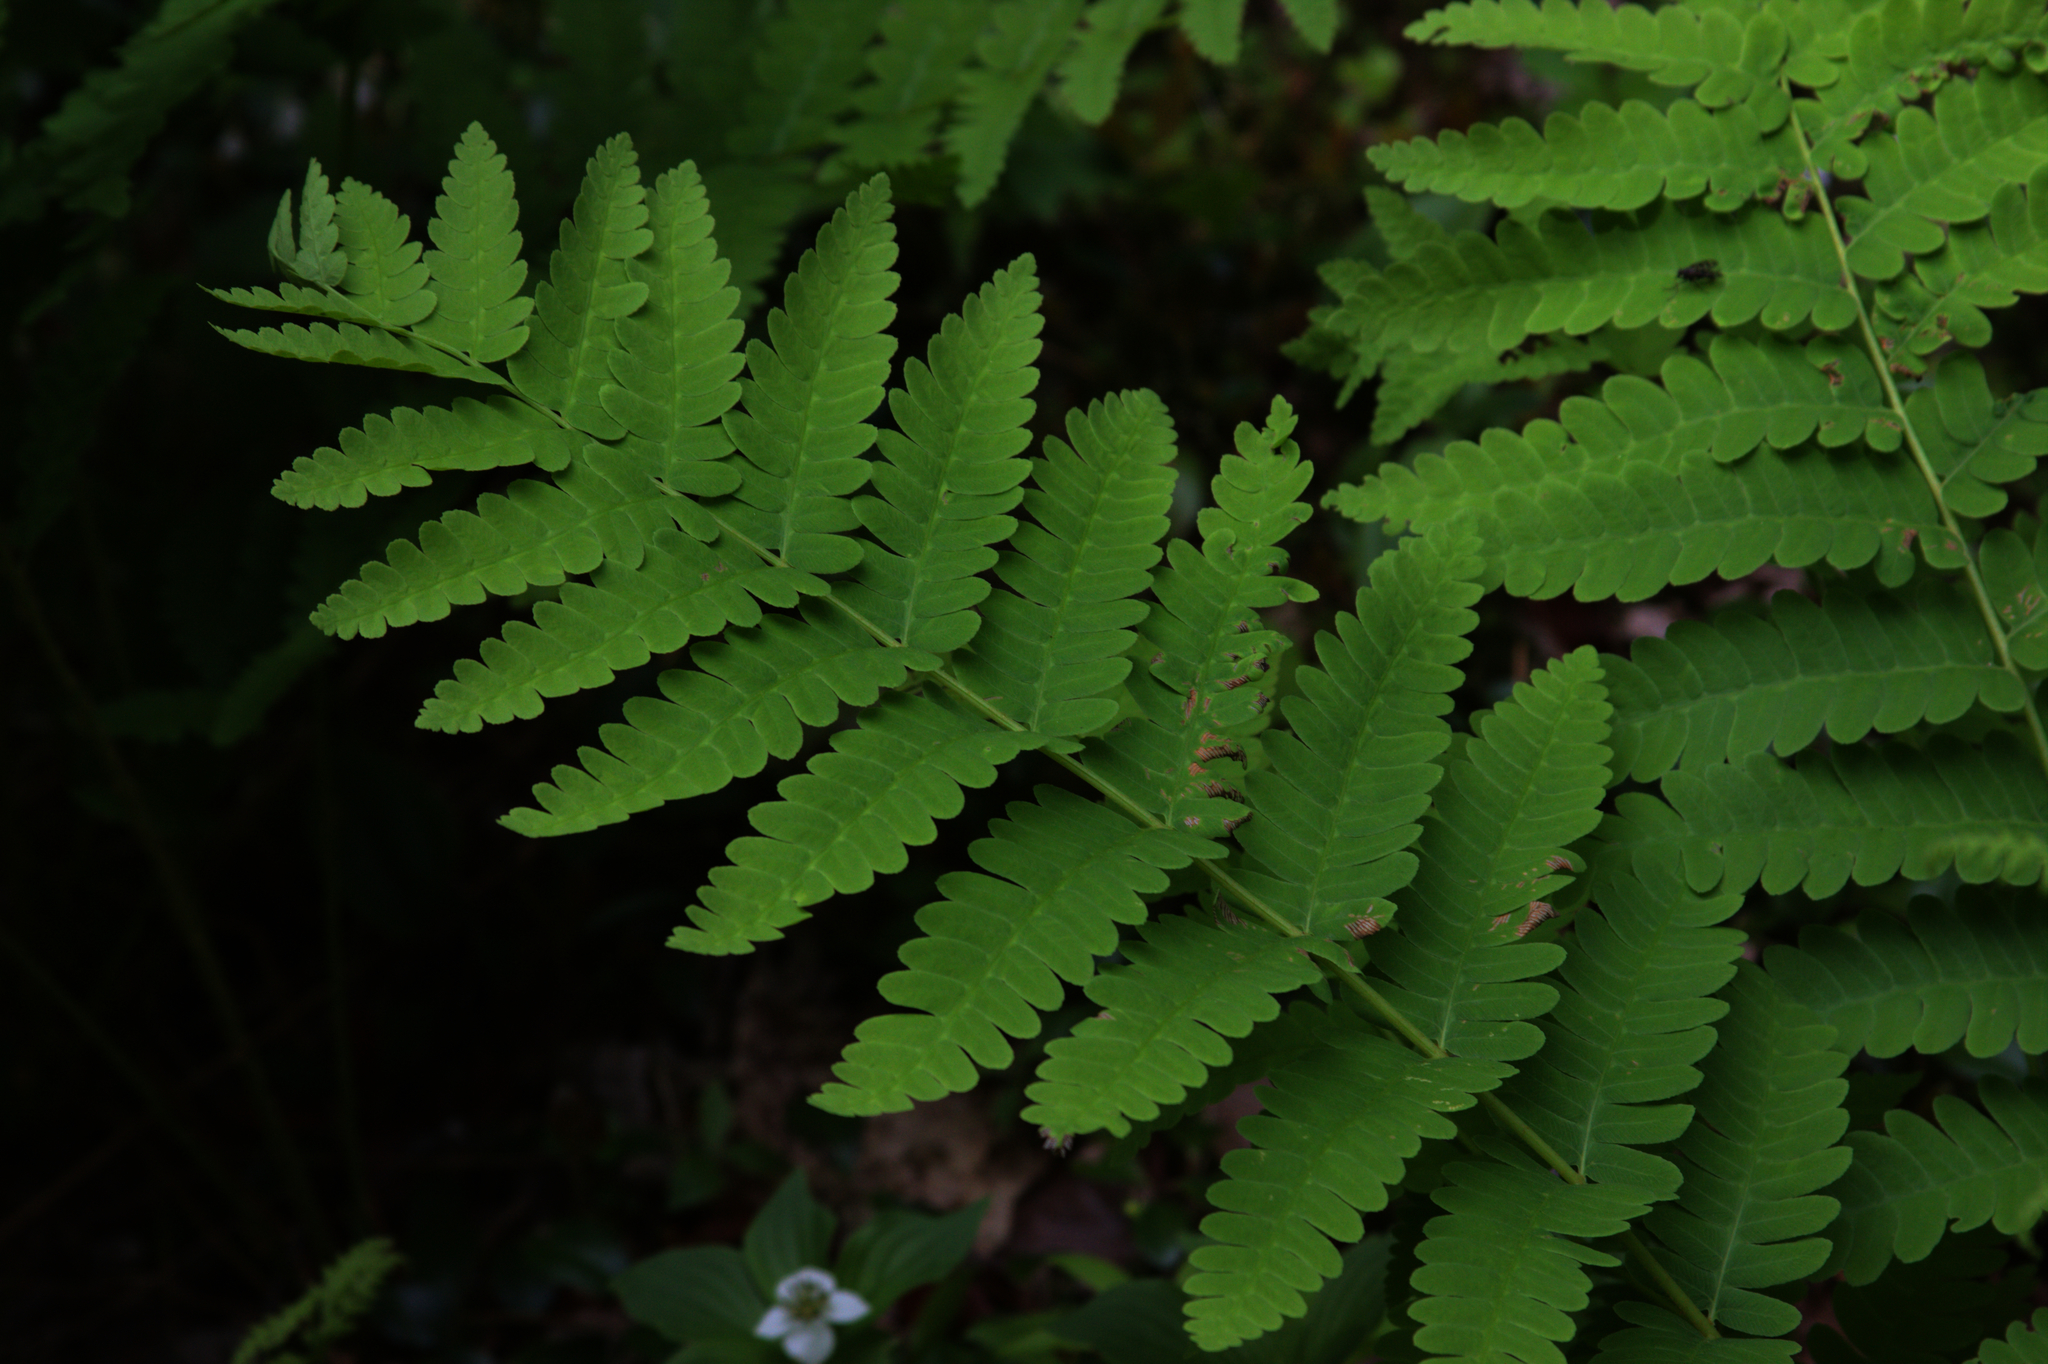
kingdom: Plantae
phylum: Tracheophyta
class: Polypodiopsida
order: Osmundales
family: Osmundaceae
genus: Claytosmunda
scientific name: Claytosmunda claytoniana
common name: Clayton's fern
